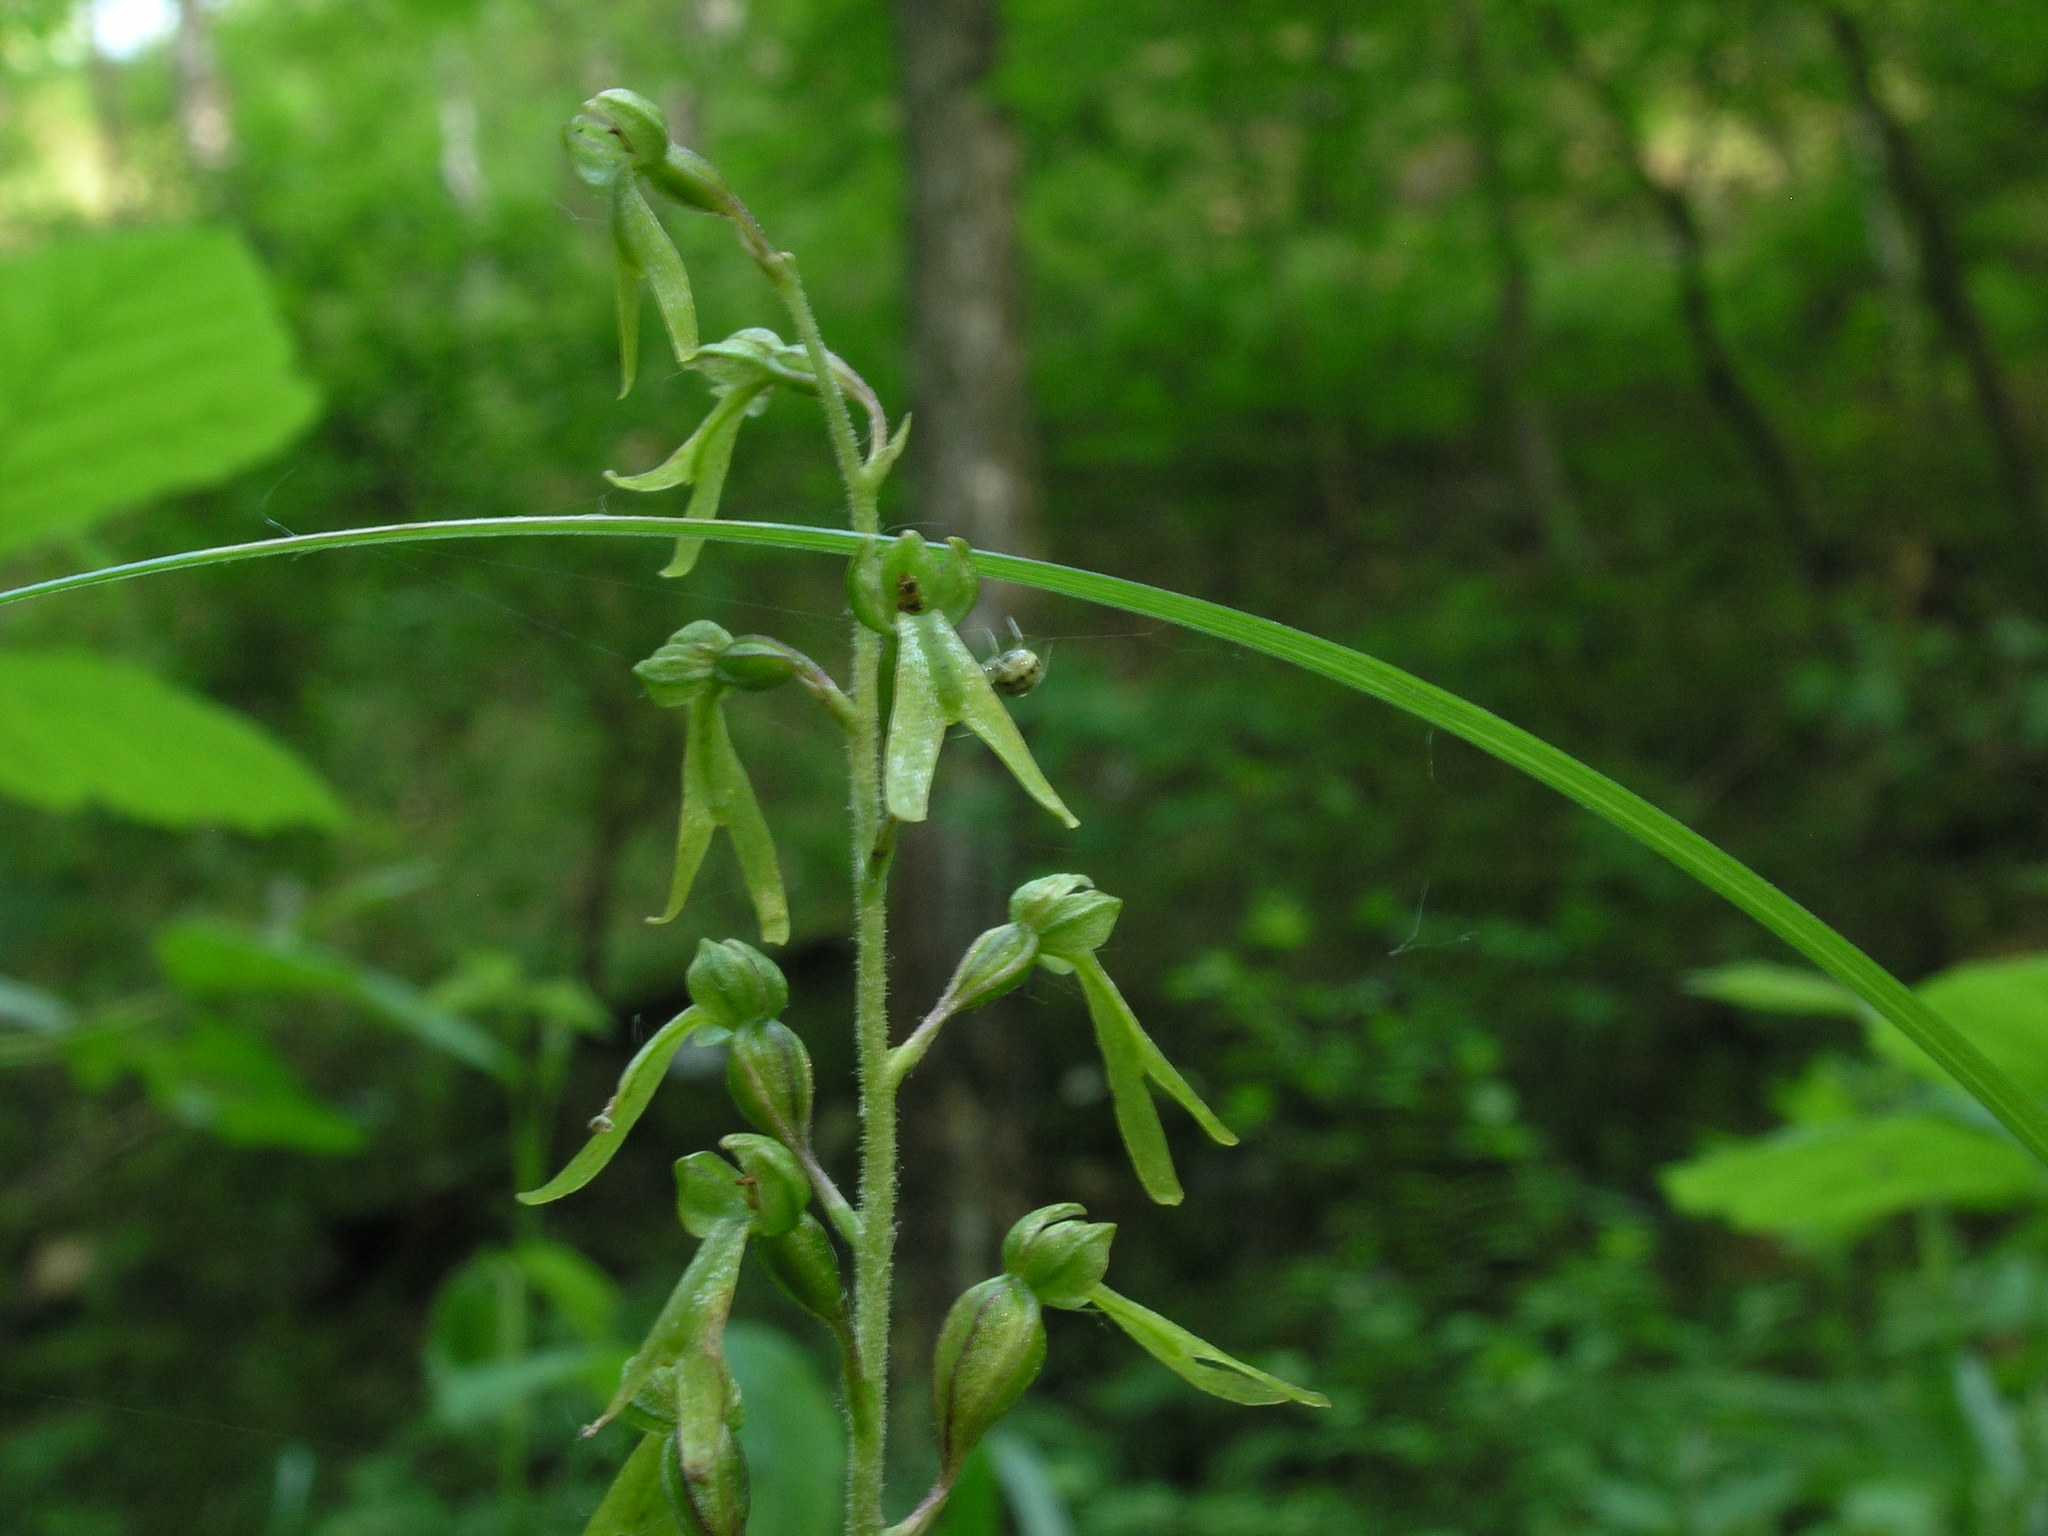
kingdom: Plantae
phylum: Tracheophyta
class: Liliopsida
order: Asparagales
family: Orchidaceae
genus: Neottia
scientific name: Neottia ovata
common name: Common twayblade
